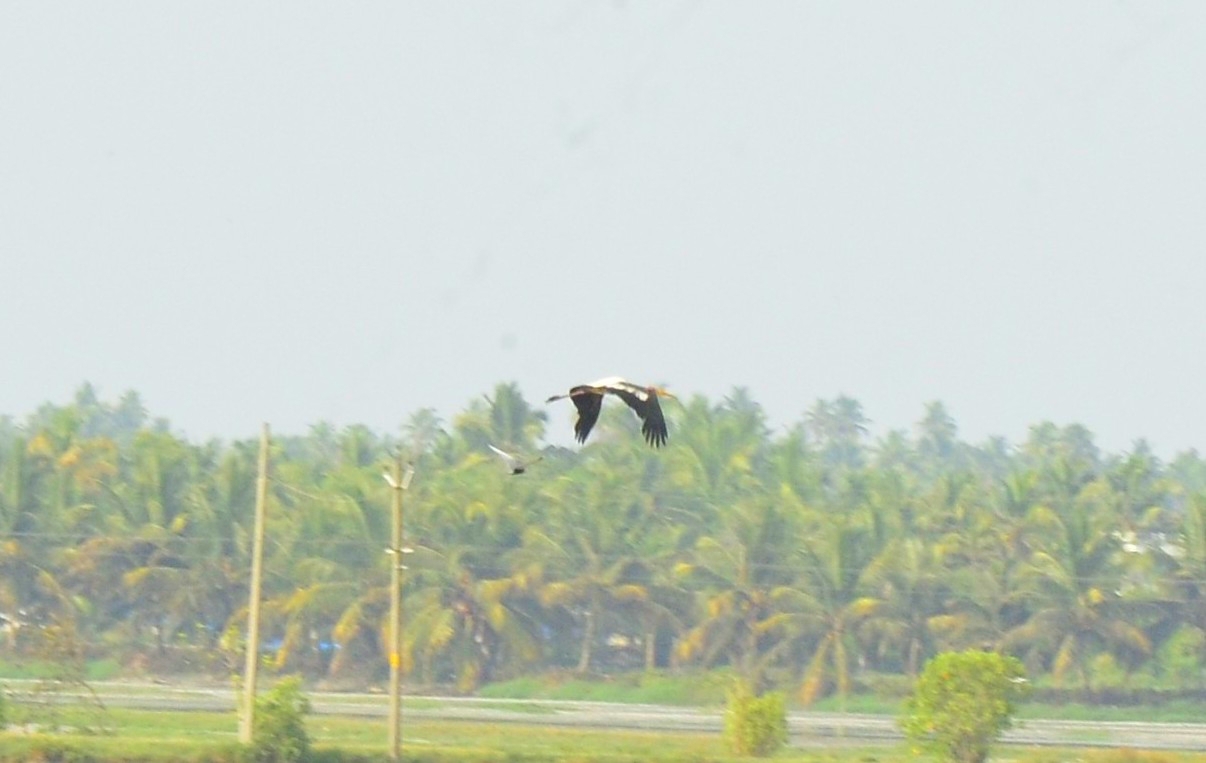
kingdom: Animalia
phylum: Chordata
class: Aves
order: Ciconiiformes
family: Ciconiidae
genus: Mycteria
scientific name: Mycteria leucocephala
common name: Painted stork
